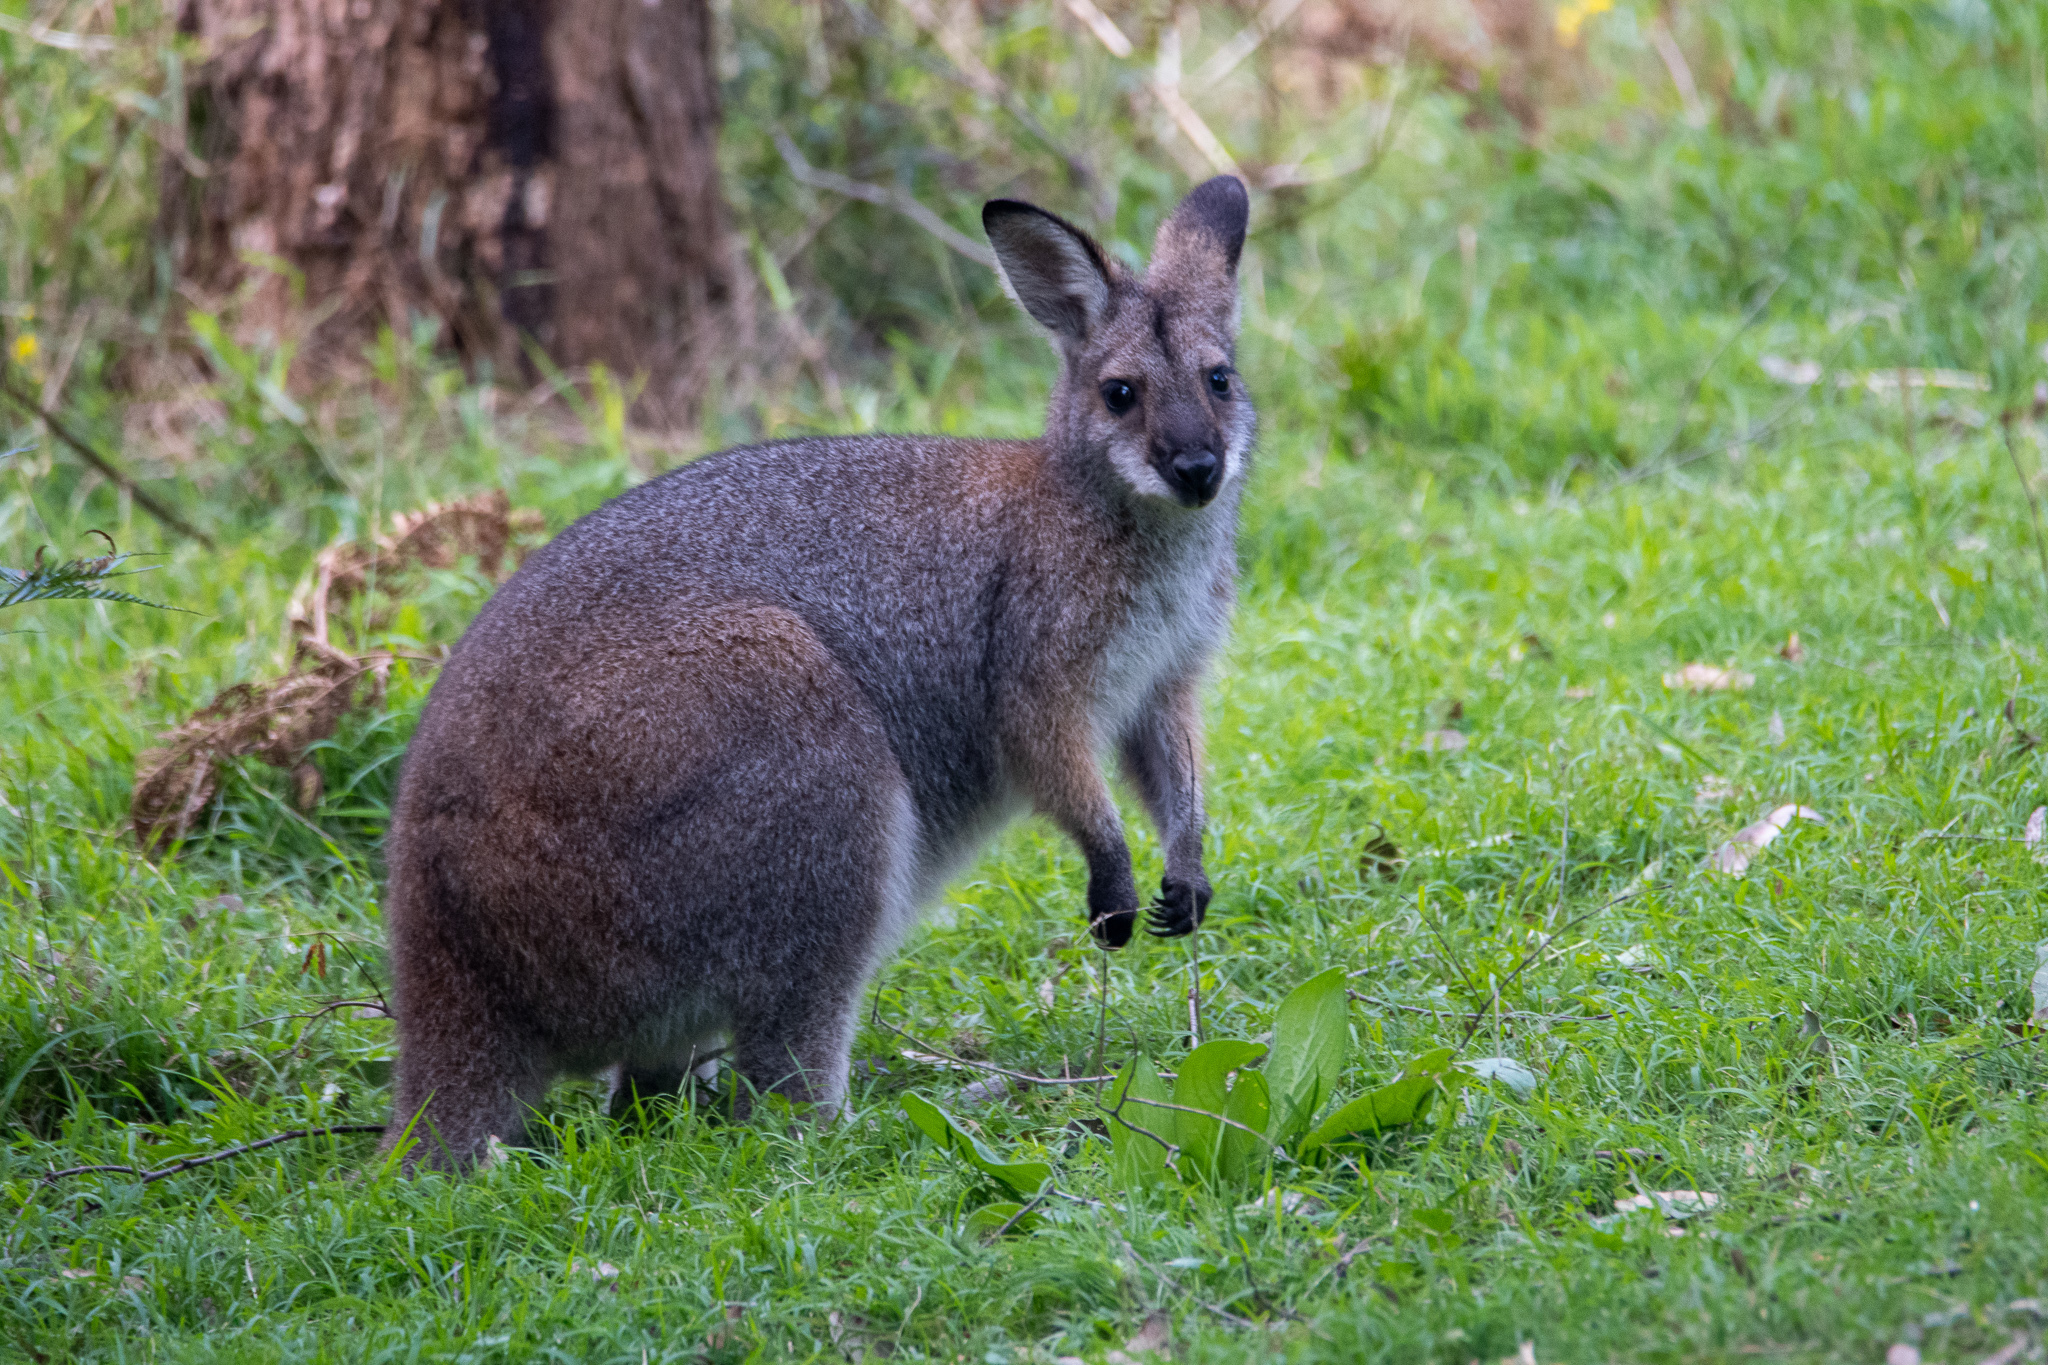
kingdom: Animalia
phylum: Chordata
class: Mammalia
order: Diprotodontia
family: Macropodidae
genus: Notamacropus
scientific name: Notamacropus rufogriseus
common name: Red-necked wallaby
